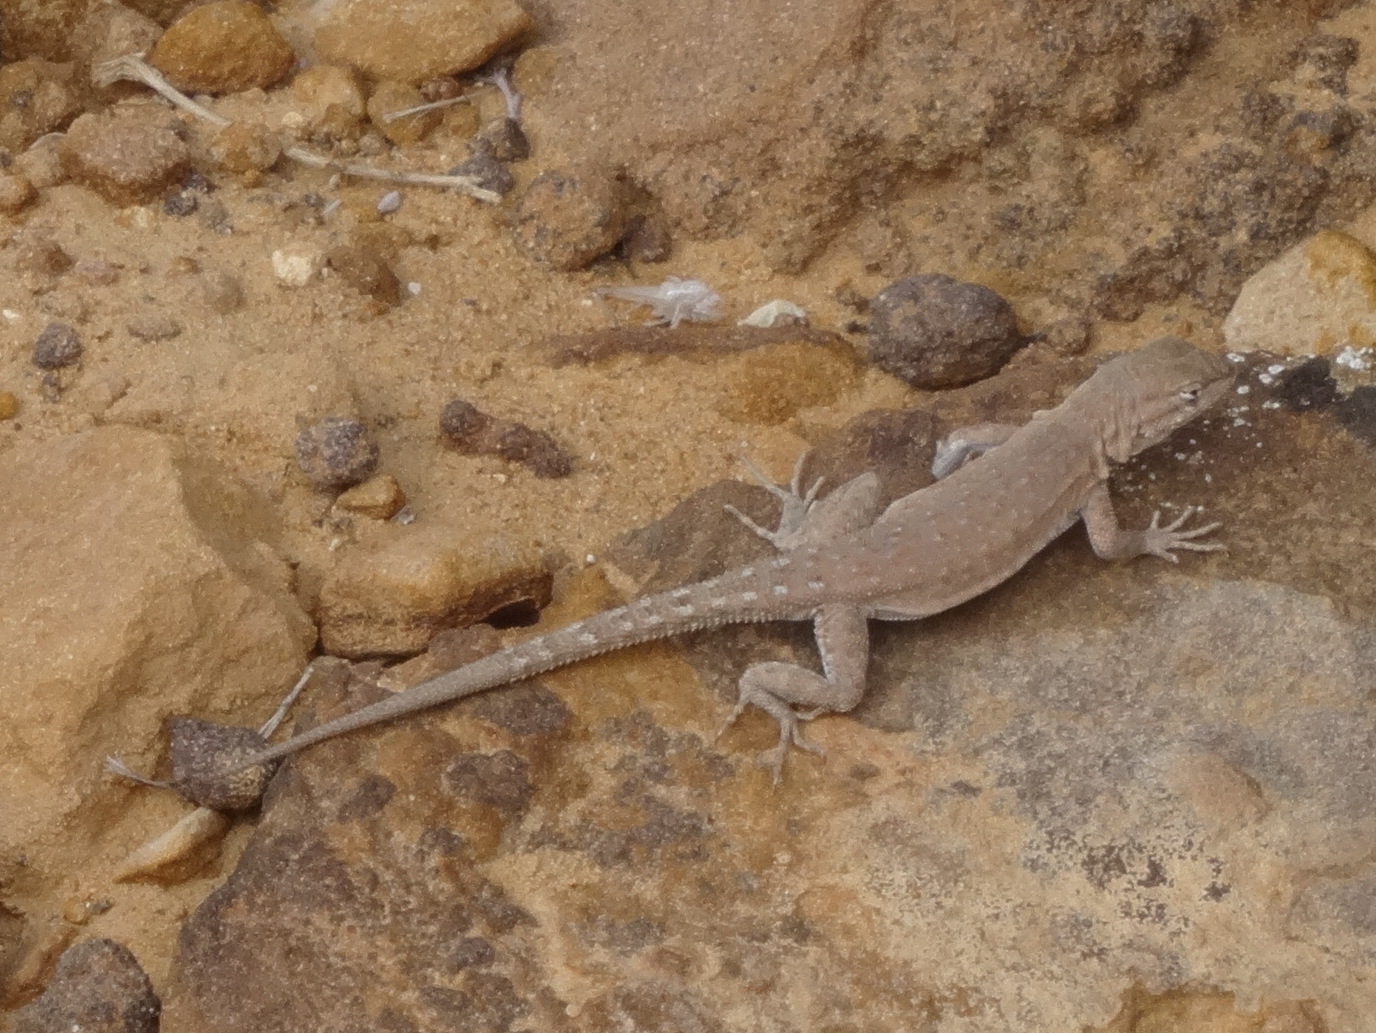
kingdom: Animalia
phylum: Chordata
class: Squamata
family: Phrynosomatidae
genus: Uta
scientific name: Uta stansburiana
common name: Side-blotched lizard
